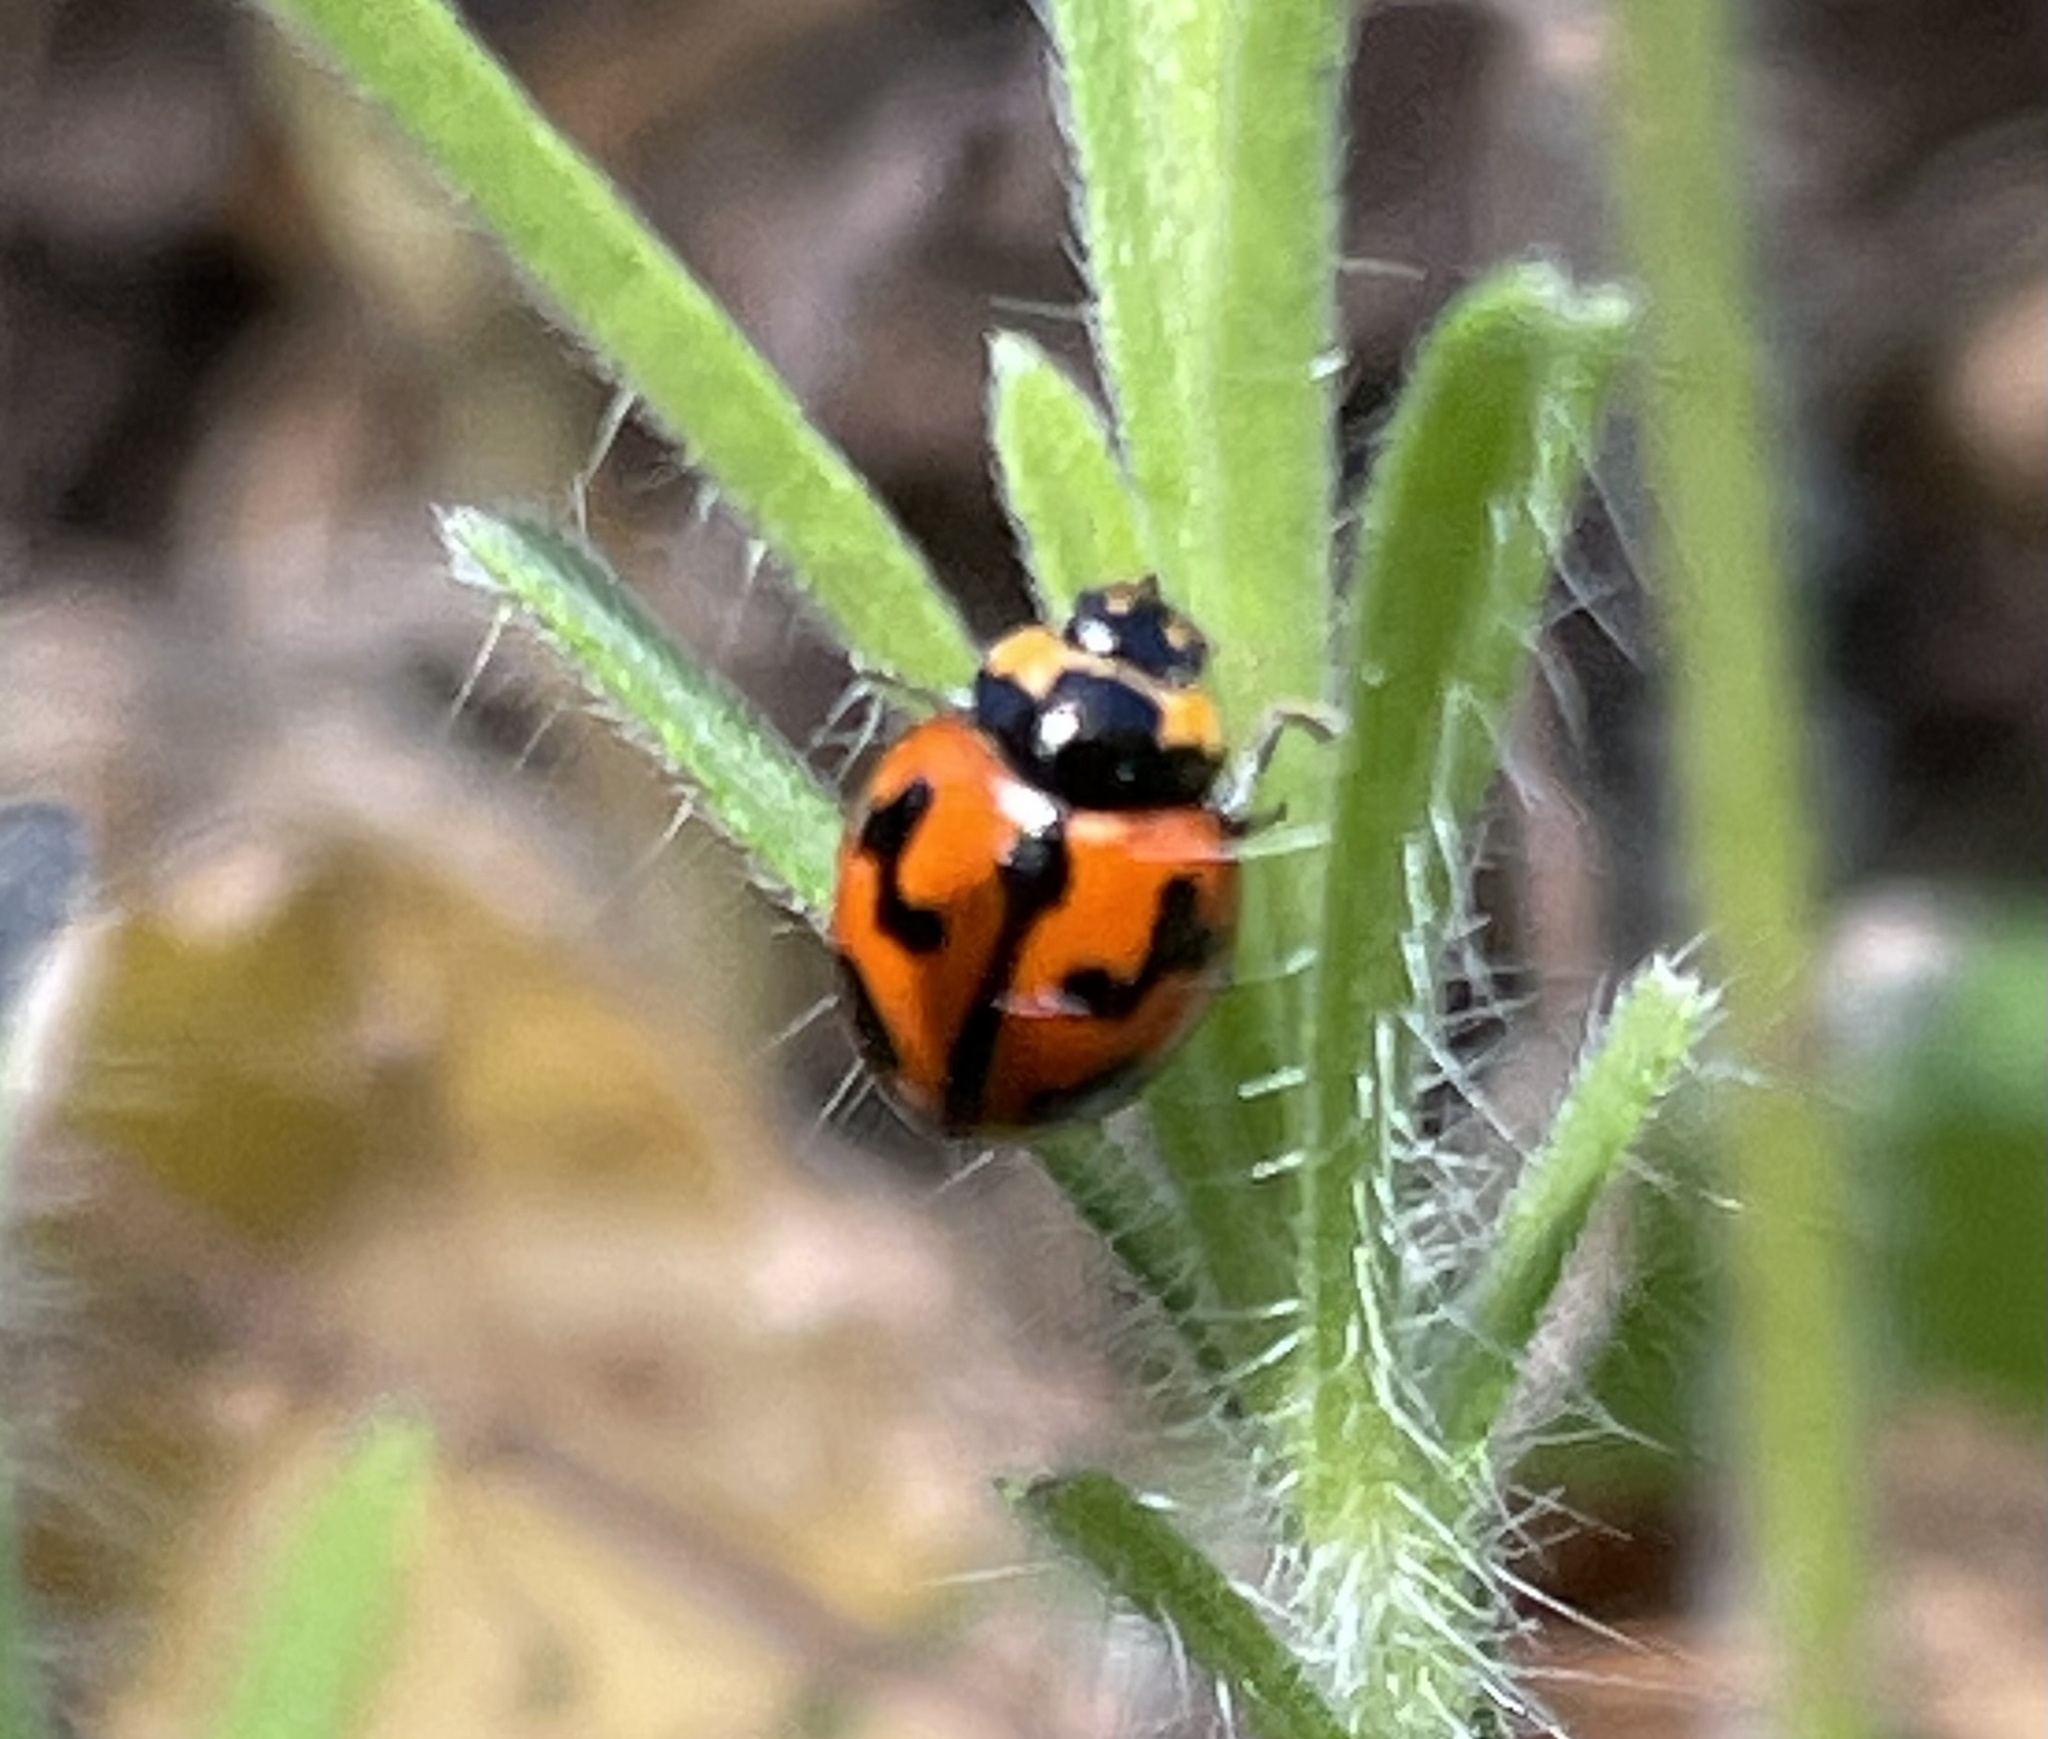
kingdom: Animalia
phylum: Arthropoda
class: Insecta
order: Coleoptera
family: Coccinellidae
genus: Coccinella
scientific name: Coccinella transversalis
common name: Transverse lady beetle
